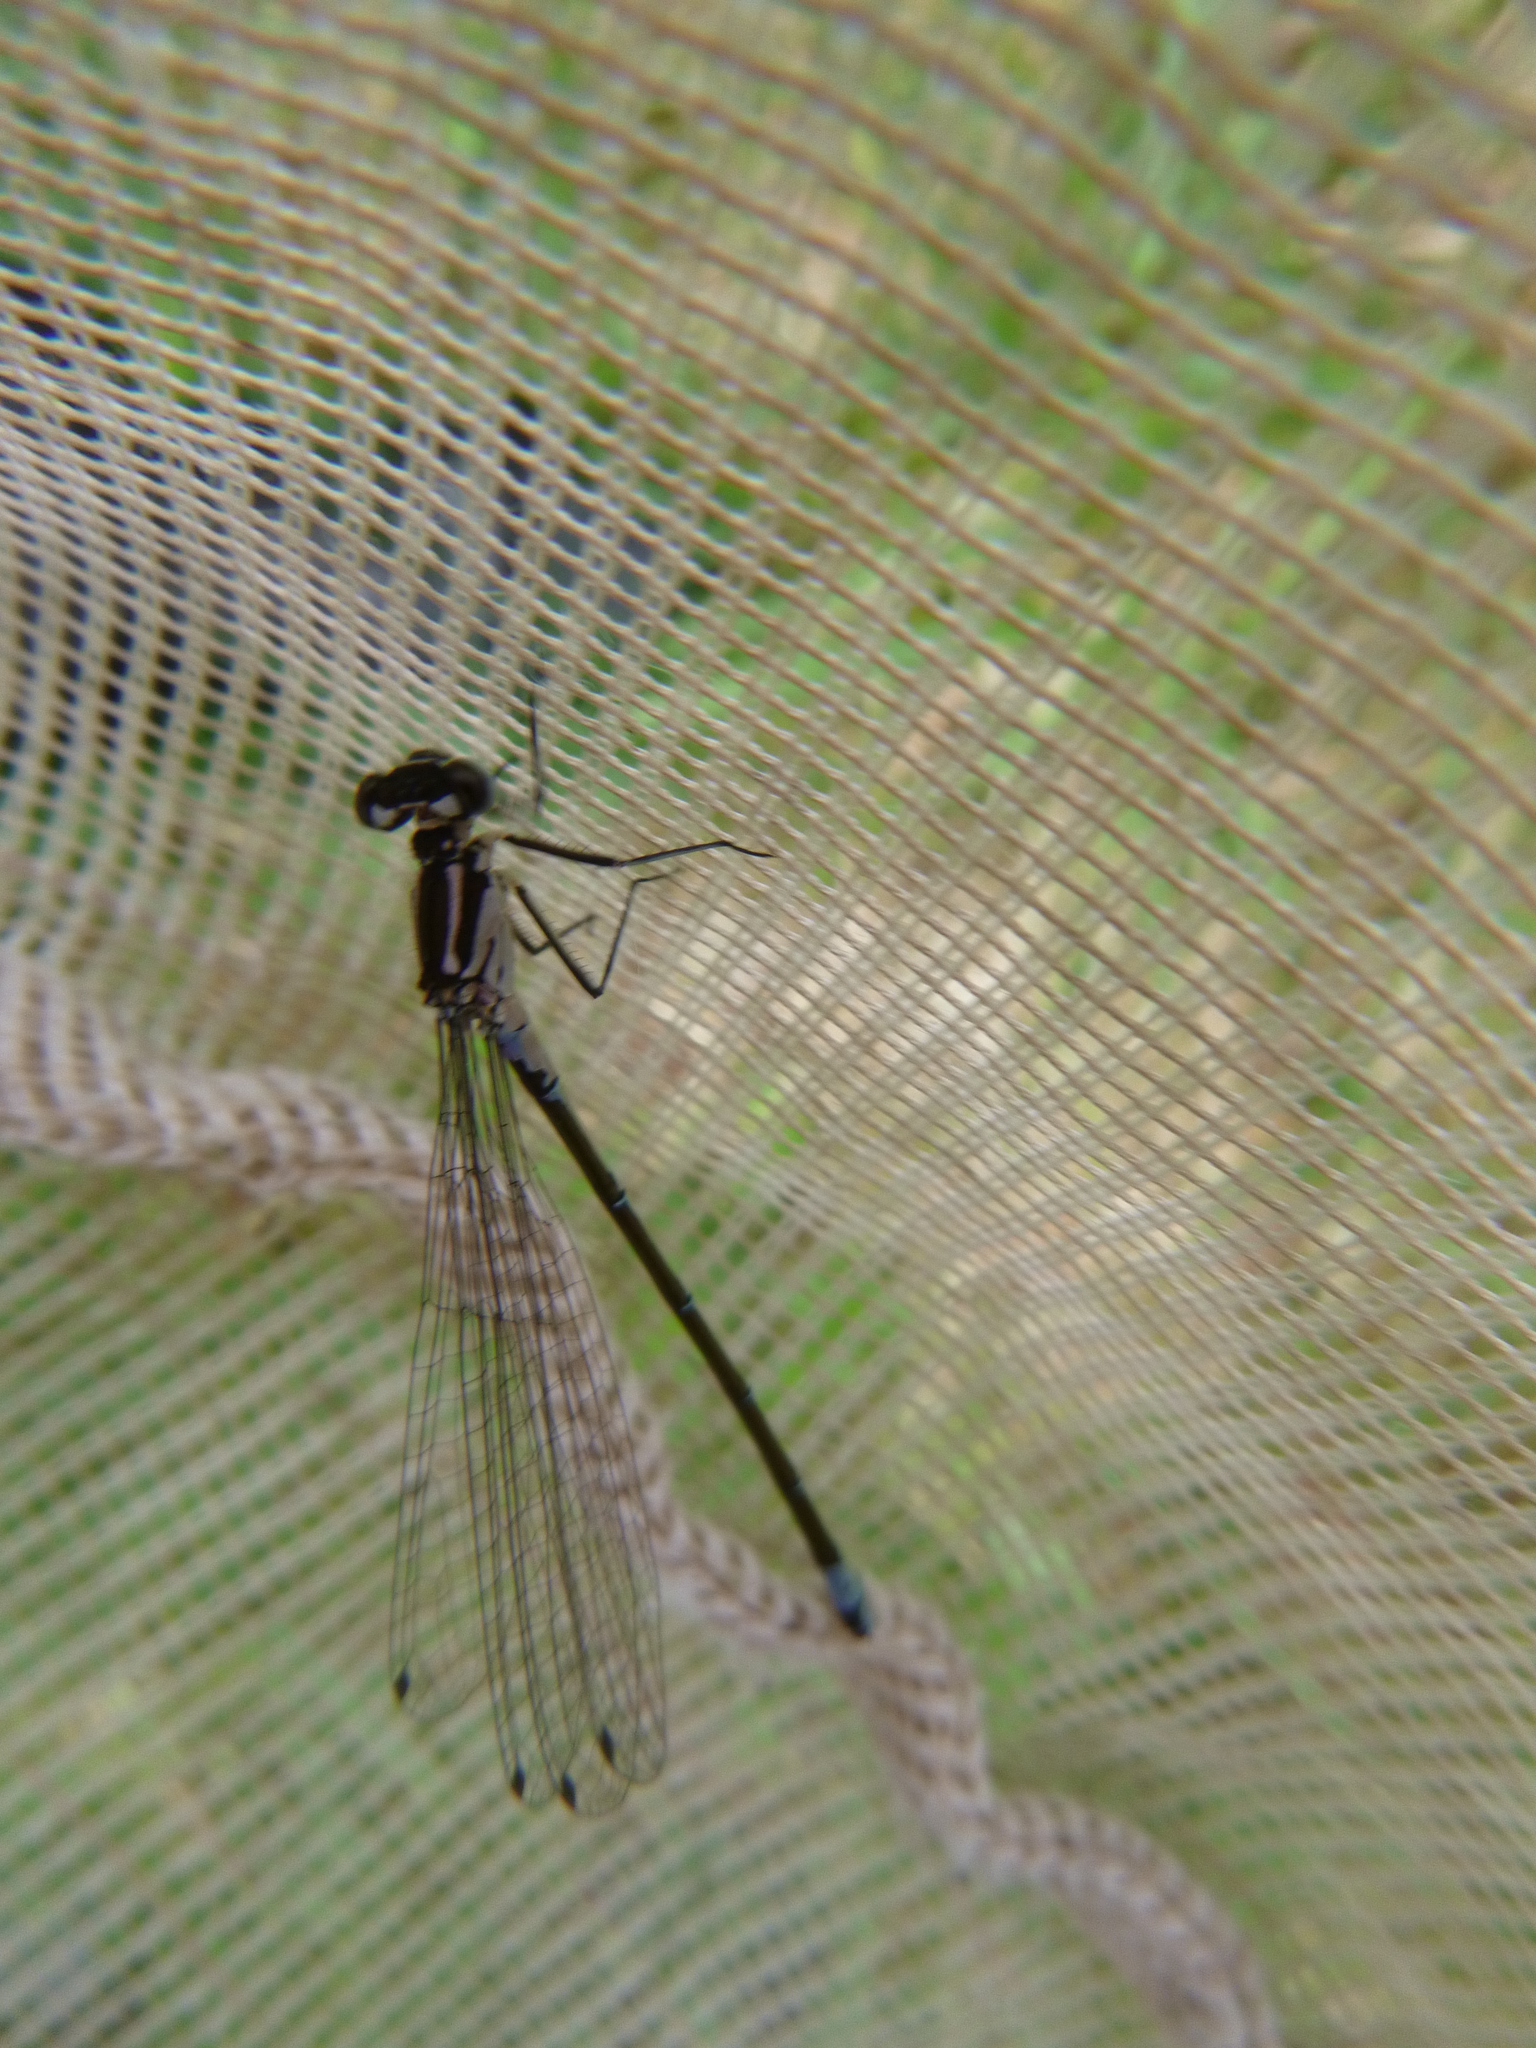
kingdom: Animalia
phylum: Arthropoda
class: Insecta
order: Odonata
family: Coenagrionidae
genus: Coenagrion
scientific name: Coenagrion pulchellum
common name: Variable bluet
